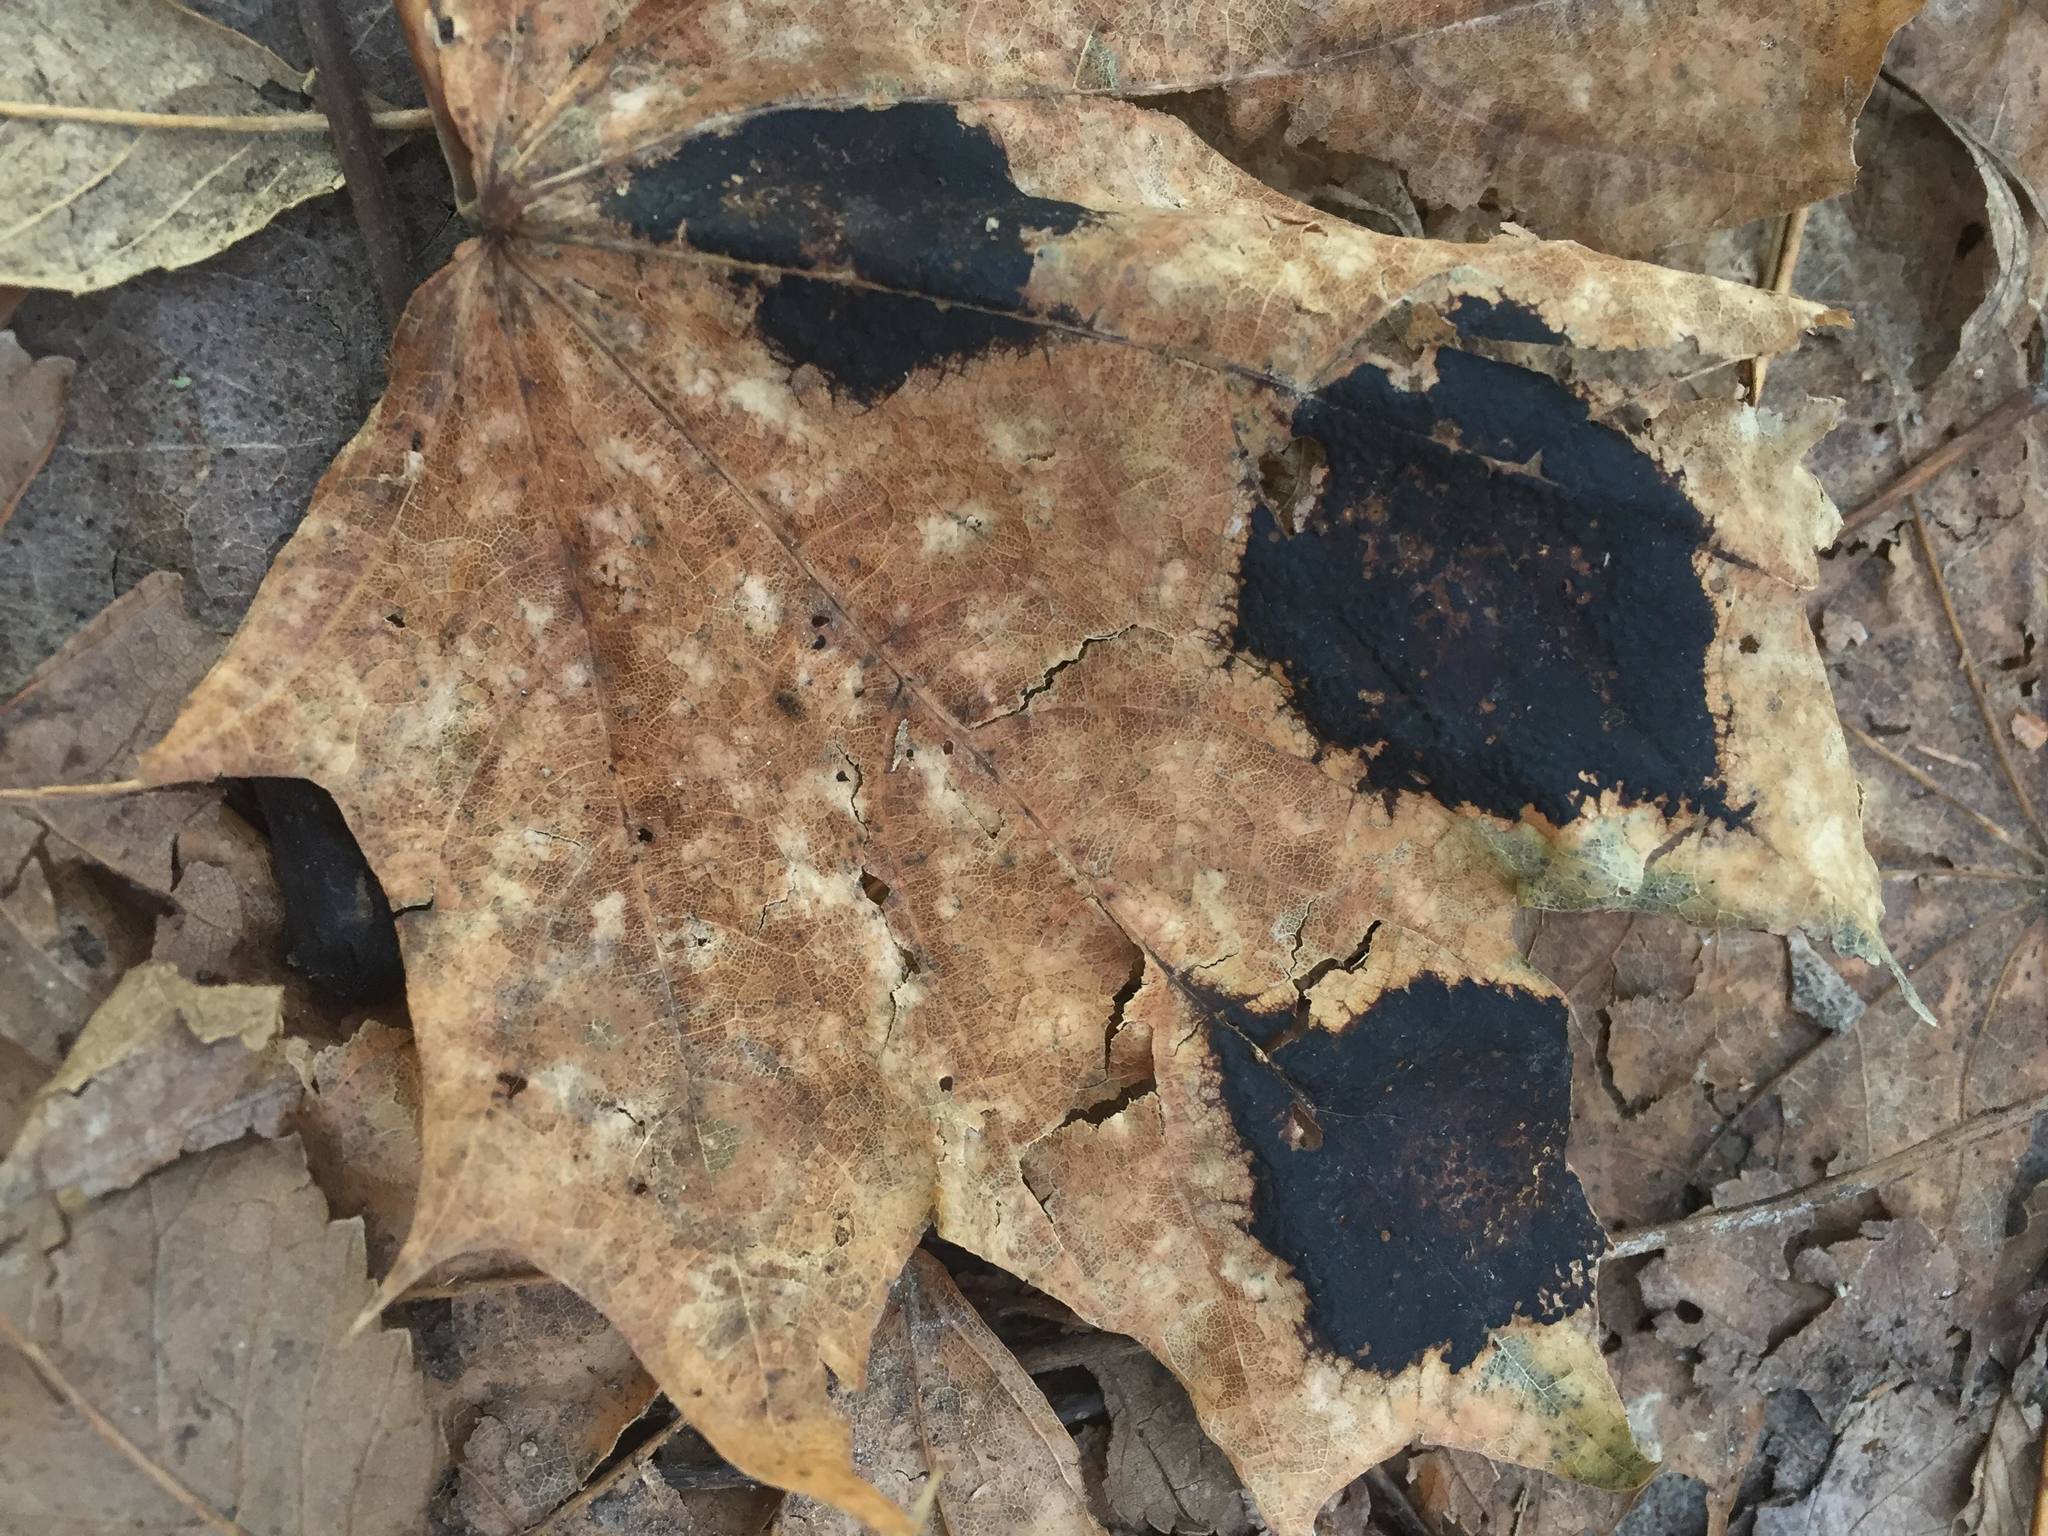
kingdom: Fungi
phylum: Ascomycota
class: Leotiomycetes
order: Rhytismatales
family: Rhytismataceae
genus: Rhytisma
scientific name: Rhytisma acerinum
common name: European tar spot
